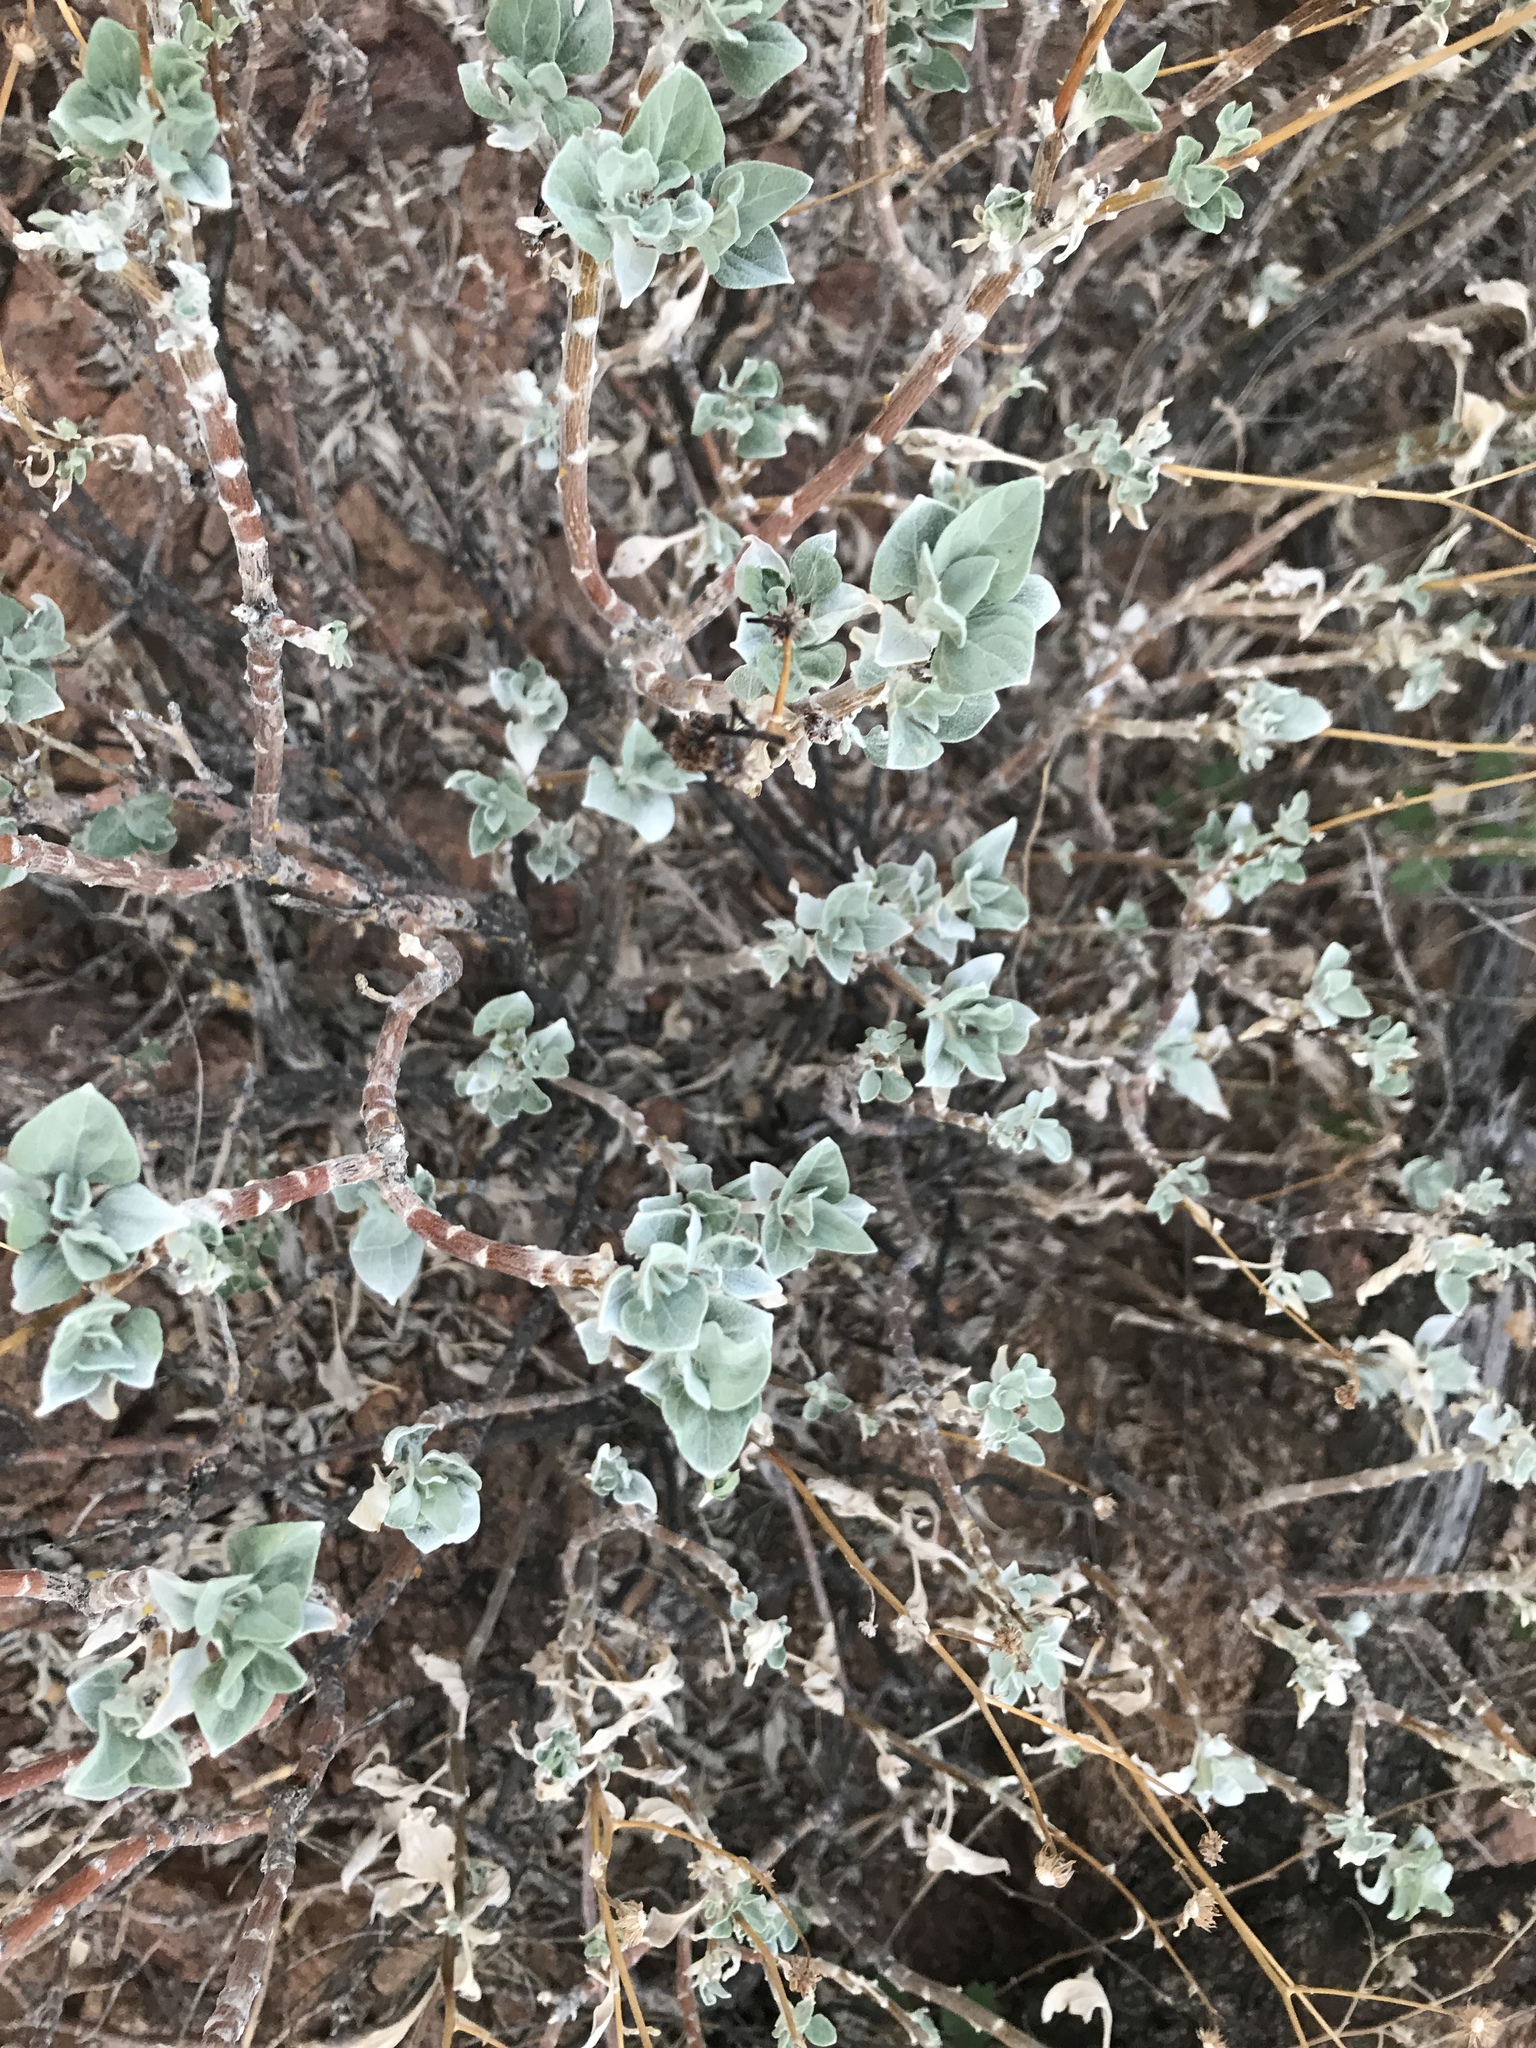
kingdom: Plantae
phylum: Tracheophyta
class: Magnoliopsida
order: Asterales
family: Asteraceae
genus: Encelia
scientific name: Encelia farinosa
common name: Brittlebush
